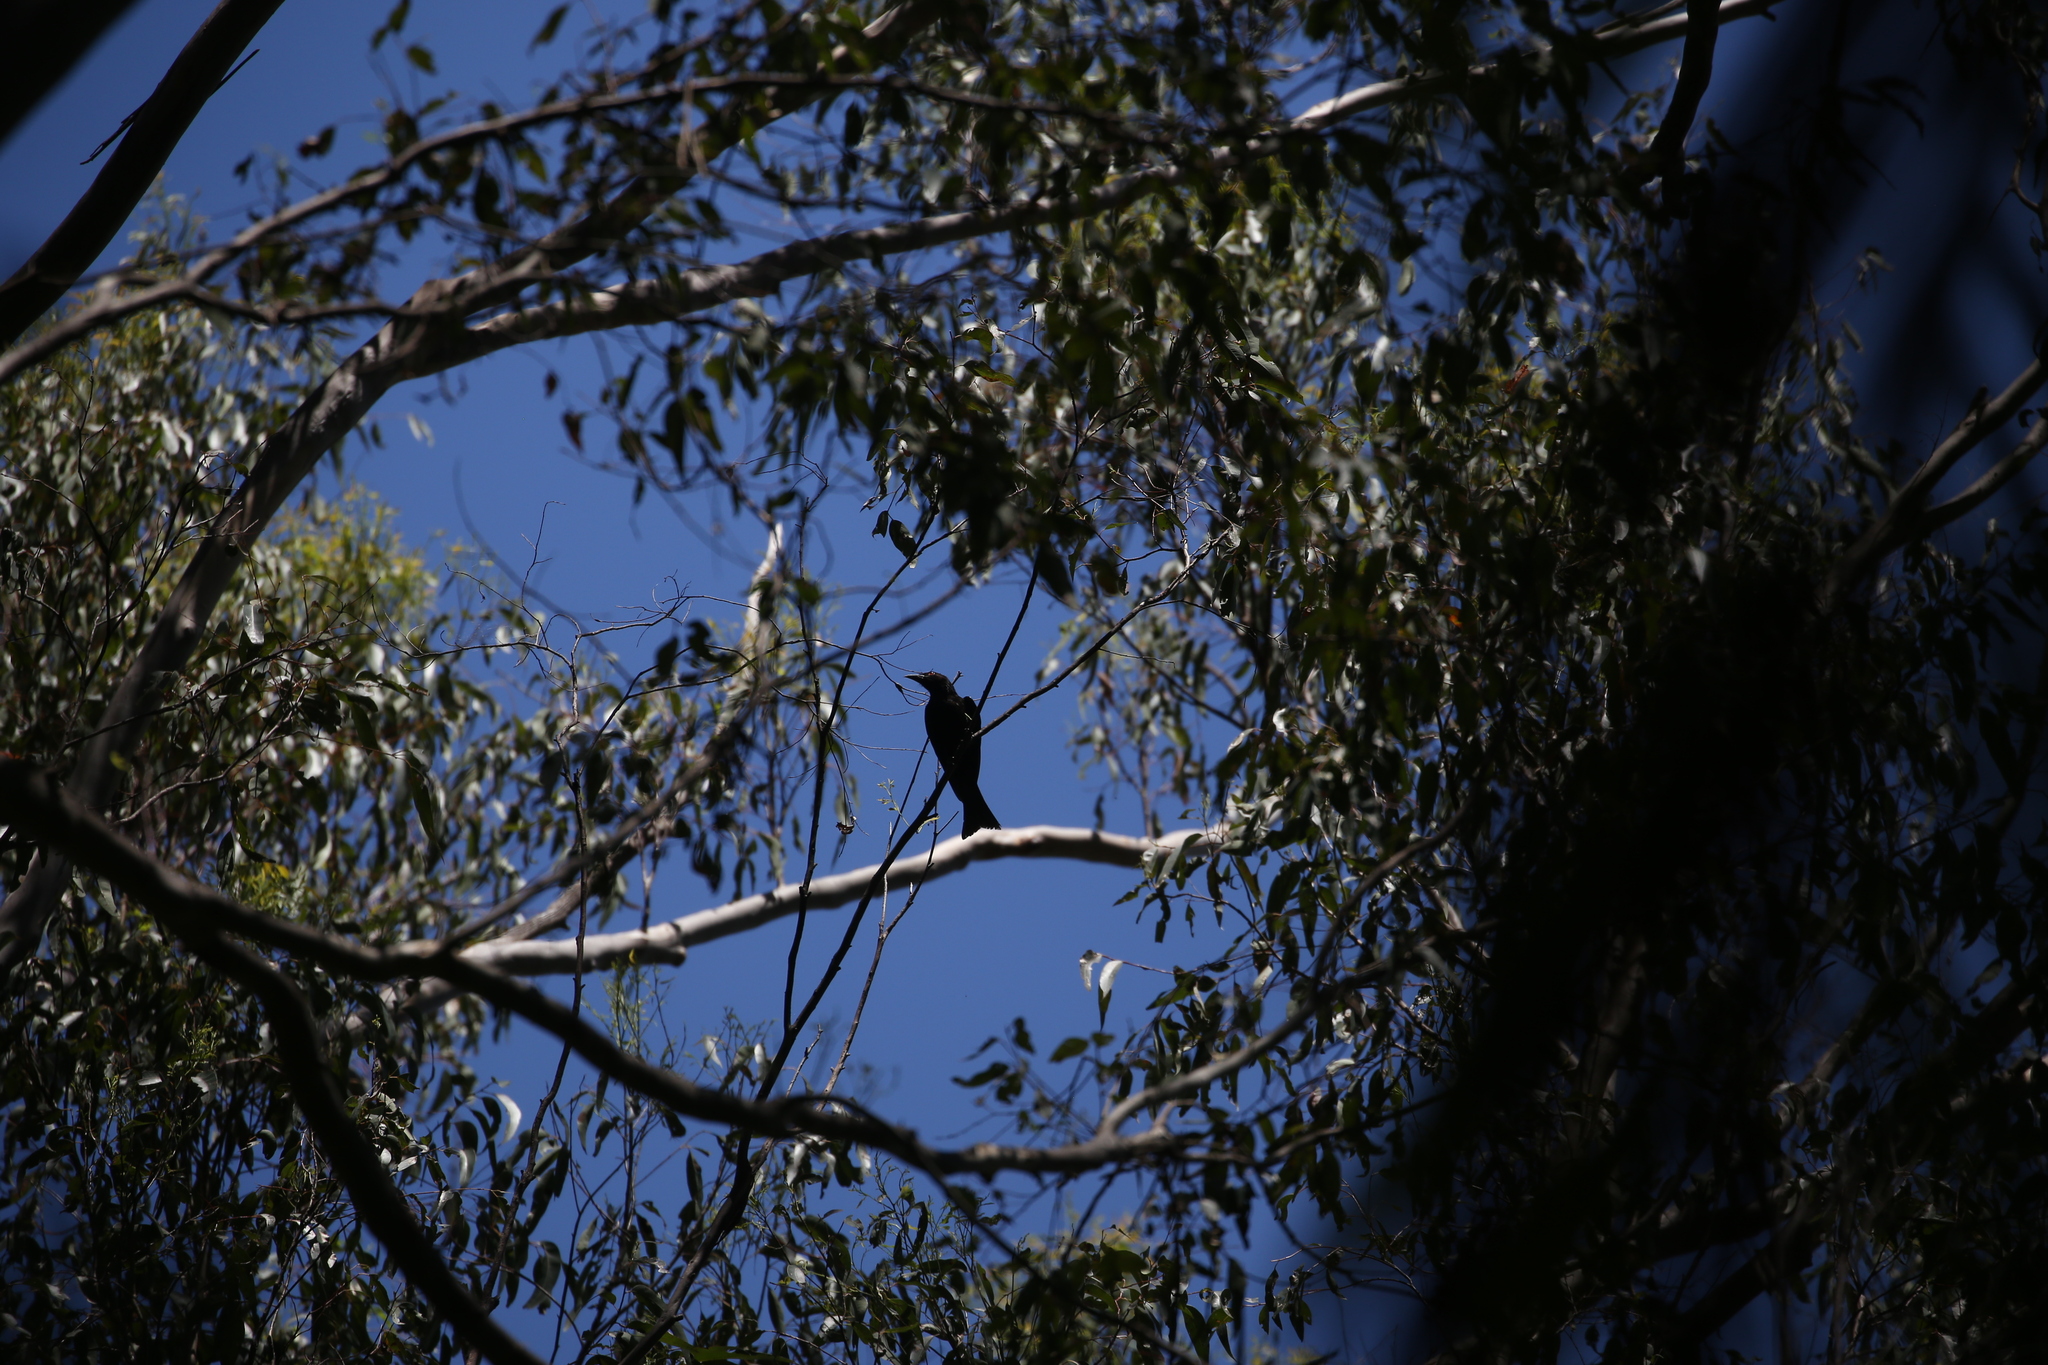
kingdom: Animalia
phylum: Chordata
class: Aves
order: Passeriformes
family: Dicruridae
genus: Dicrurus
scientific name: Dicrurus bracteatus
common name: Spangled drongo
